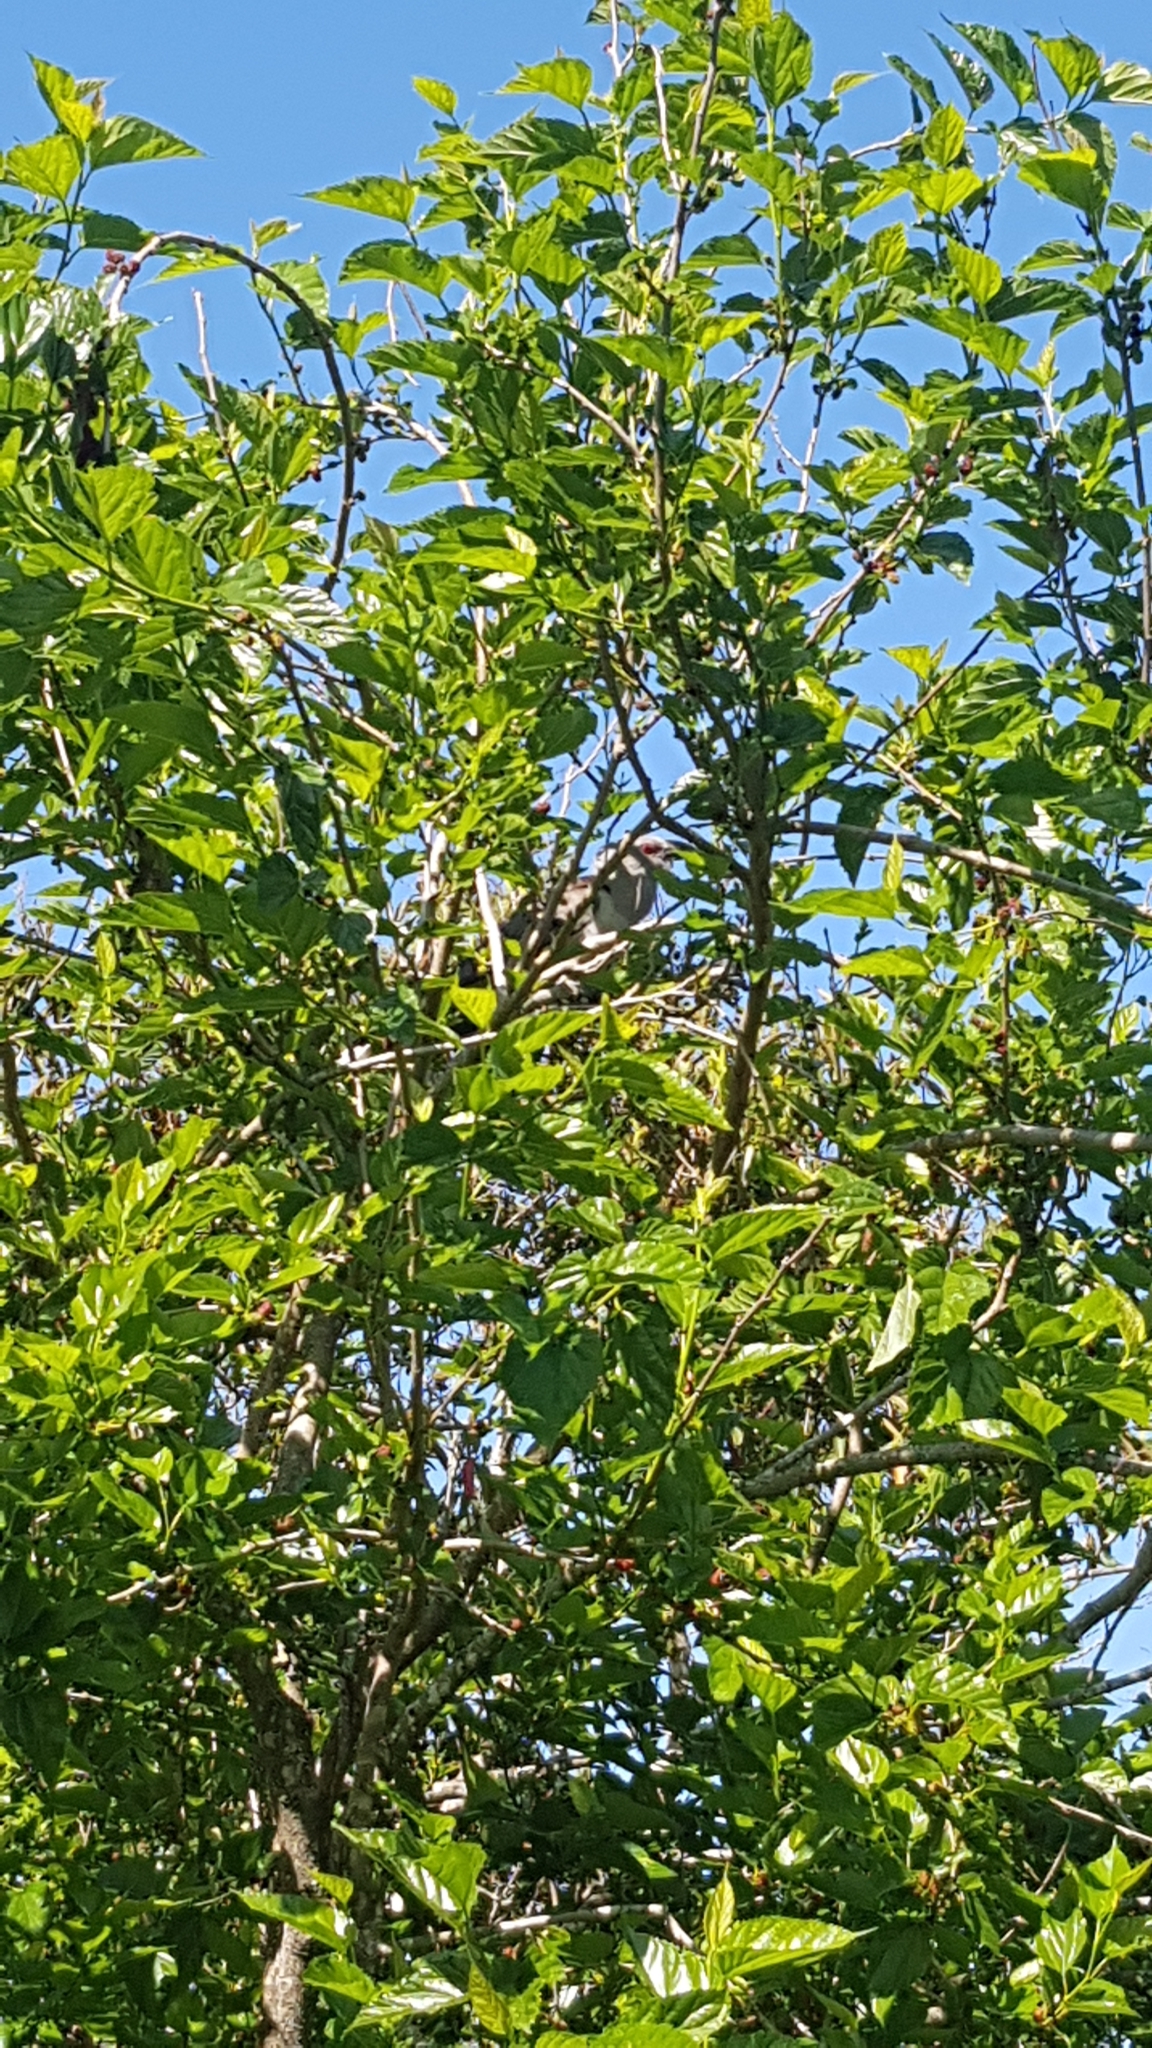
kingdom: Animalia
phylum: Chordata
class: Aves
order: Cuculiformes
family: Cuculidae
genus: Scythrops
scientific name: Scythrops novaehollandiae
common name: Channel-billed cuckoo
